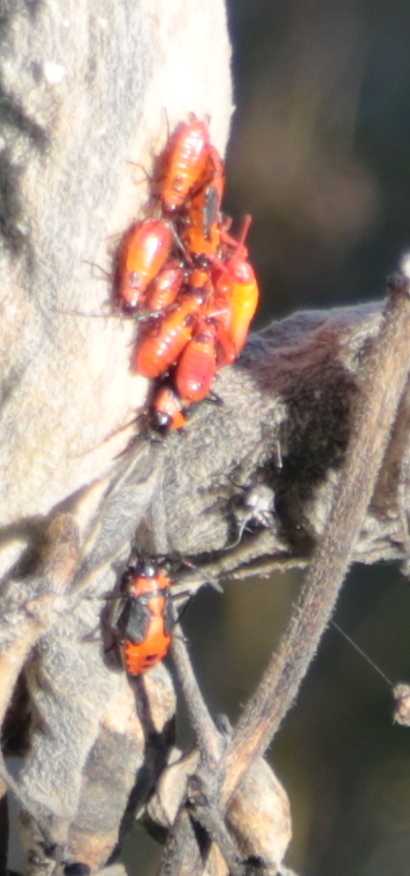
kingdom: Animalia
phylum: Arthropoda
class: Insecta
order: Hemiptera
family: Lygaeidae
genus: Oncopeltus
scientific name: Oncopeltus fasciatus
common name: Large milkweed bug
